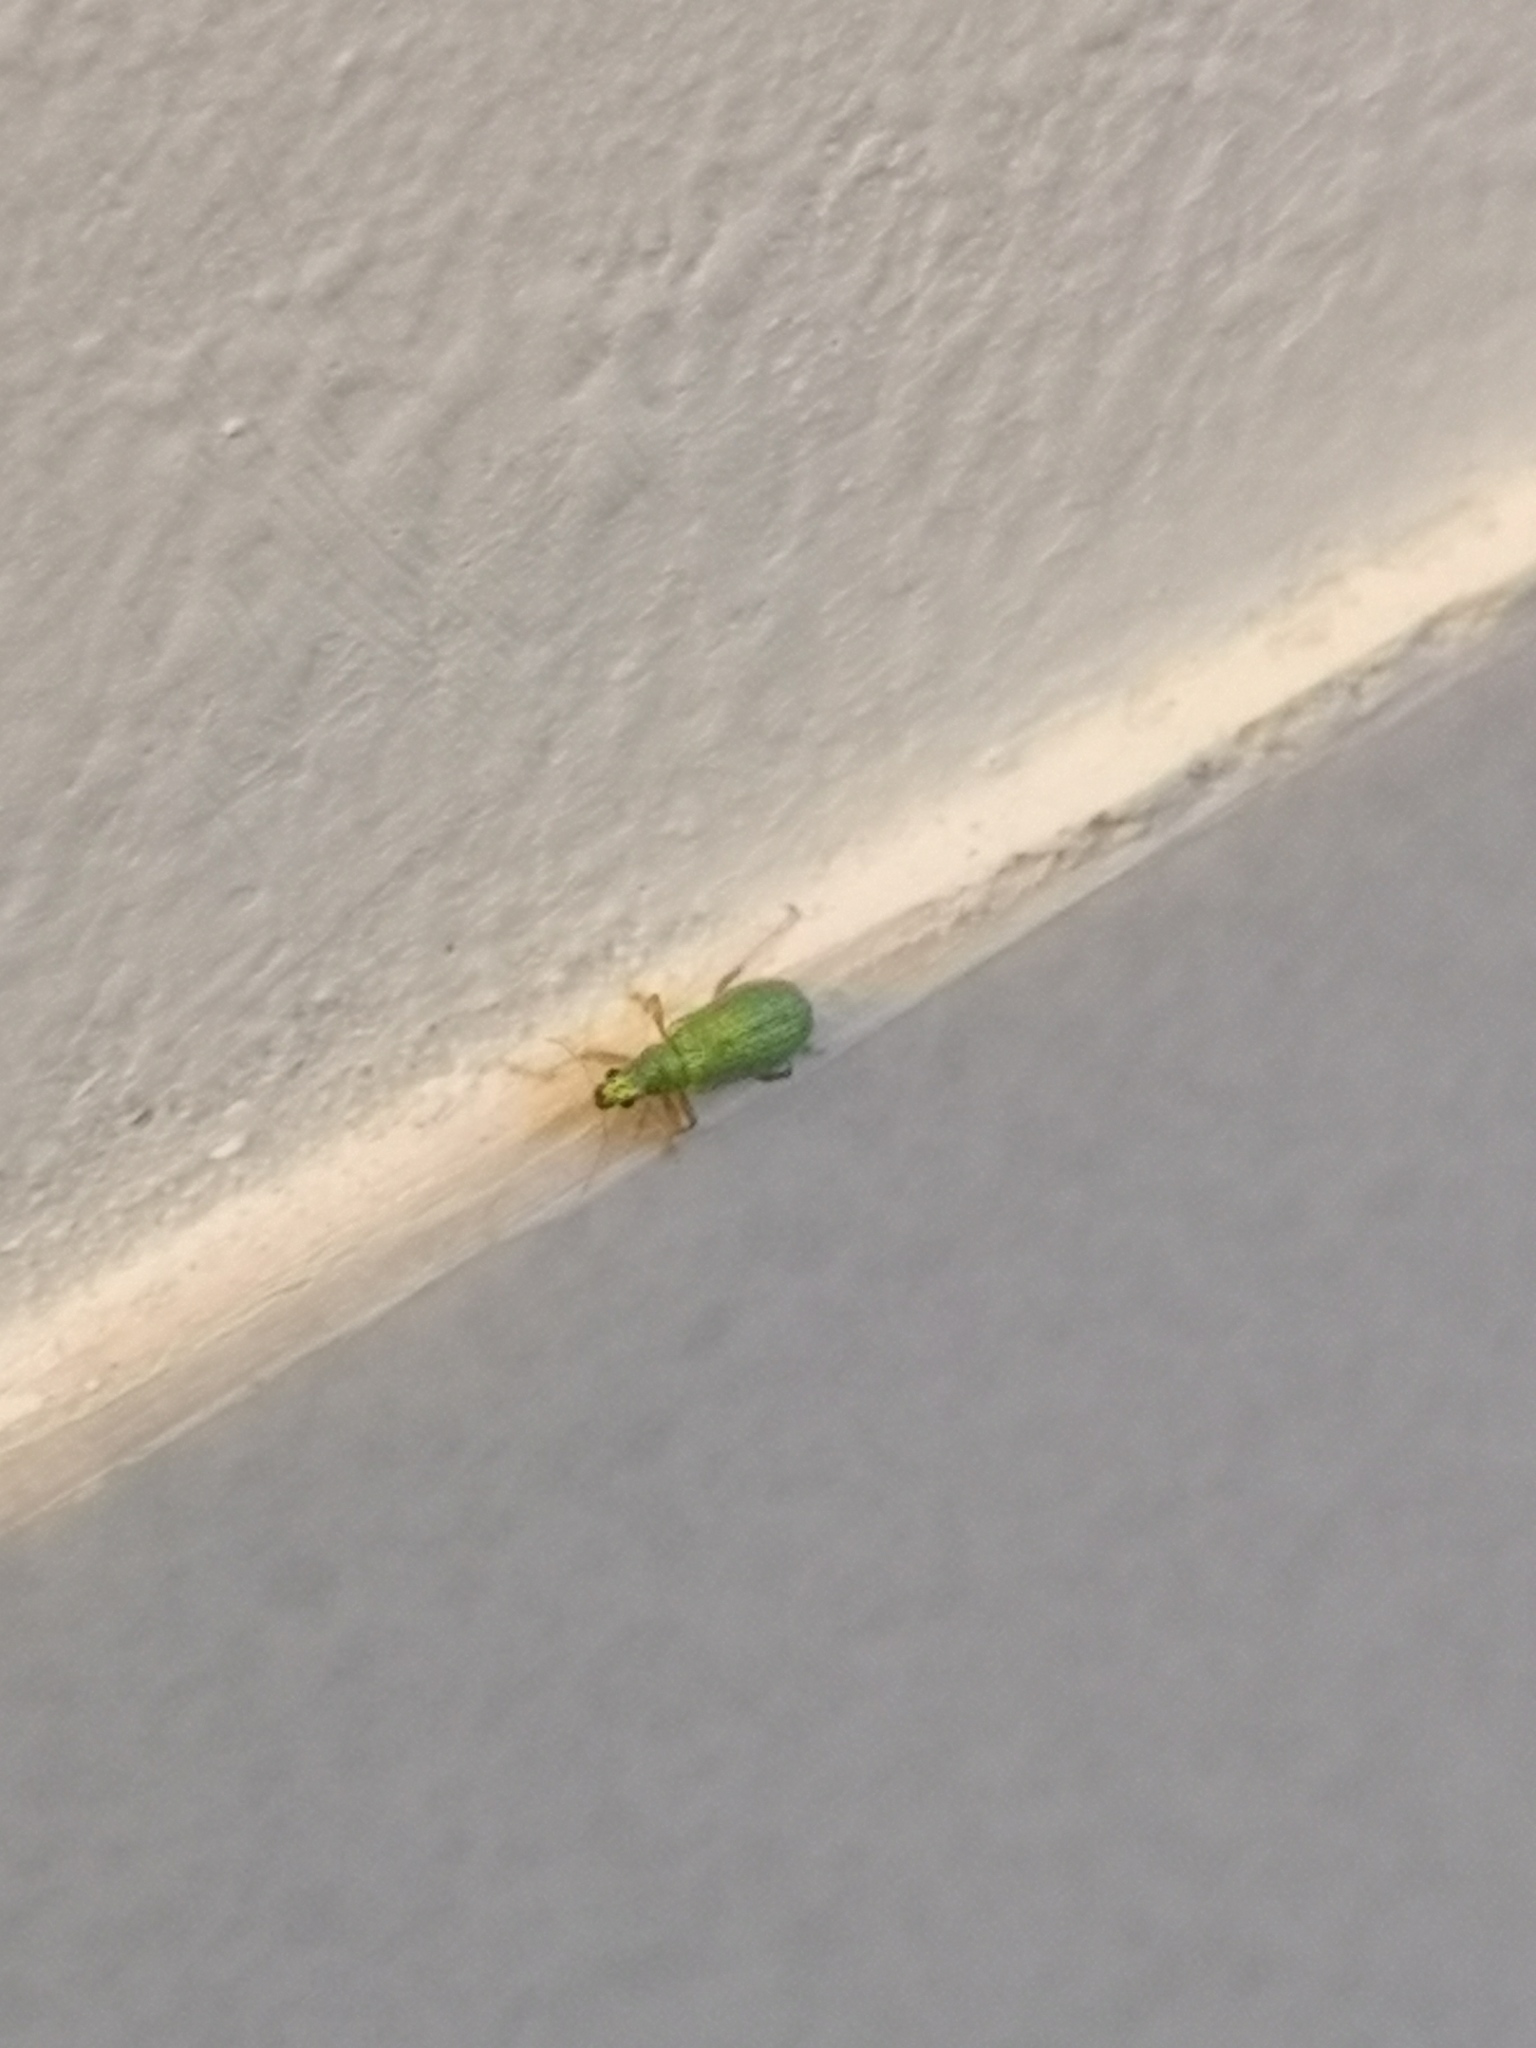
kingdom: Animalia
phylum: Arthropoda
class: Insecta
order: Coleoptera
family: Curculionidae
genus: Polydrusus
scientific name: Polydrusus pterygomalis
